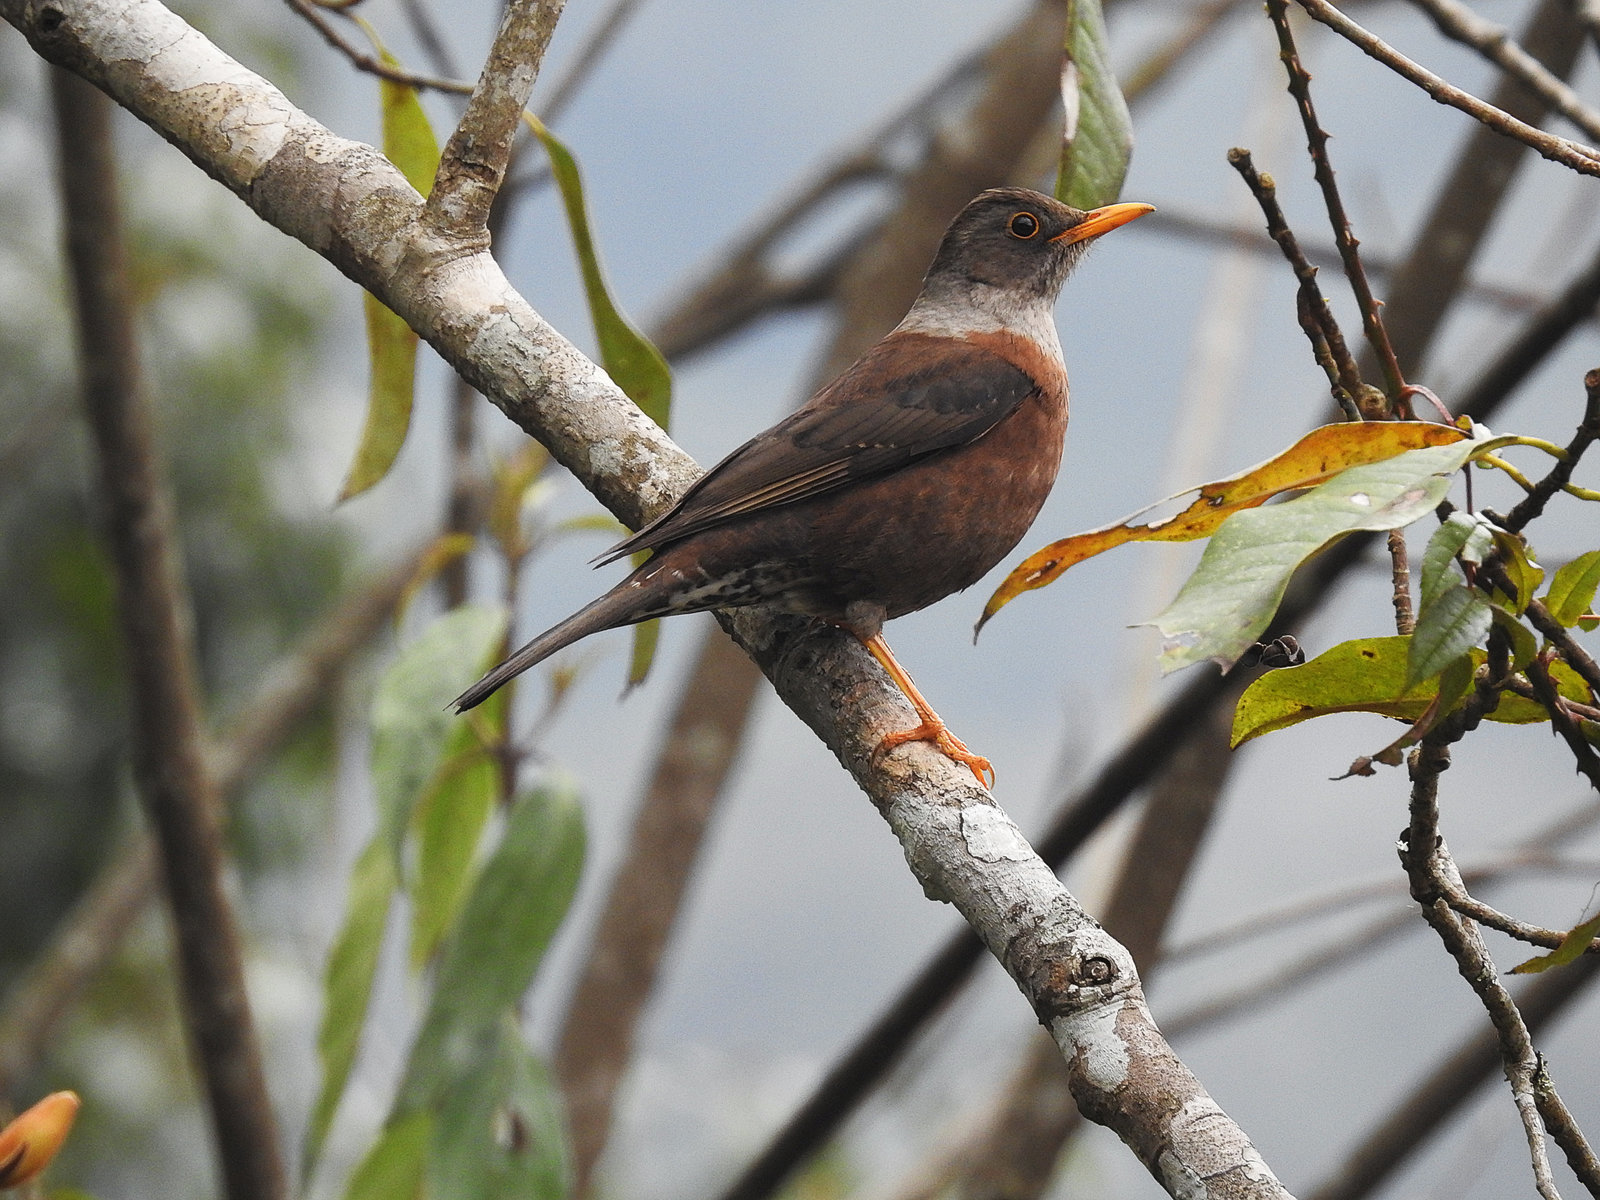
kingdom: Animalia
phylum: Chordata
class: Aves
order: Passeriformes
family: Turdidae
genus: Turdus
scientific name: Turdus rubrocanus
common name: Chestnut thrush
